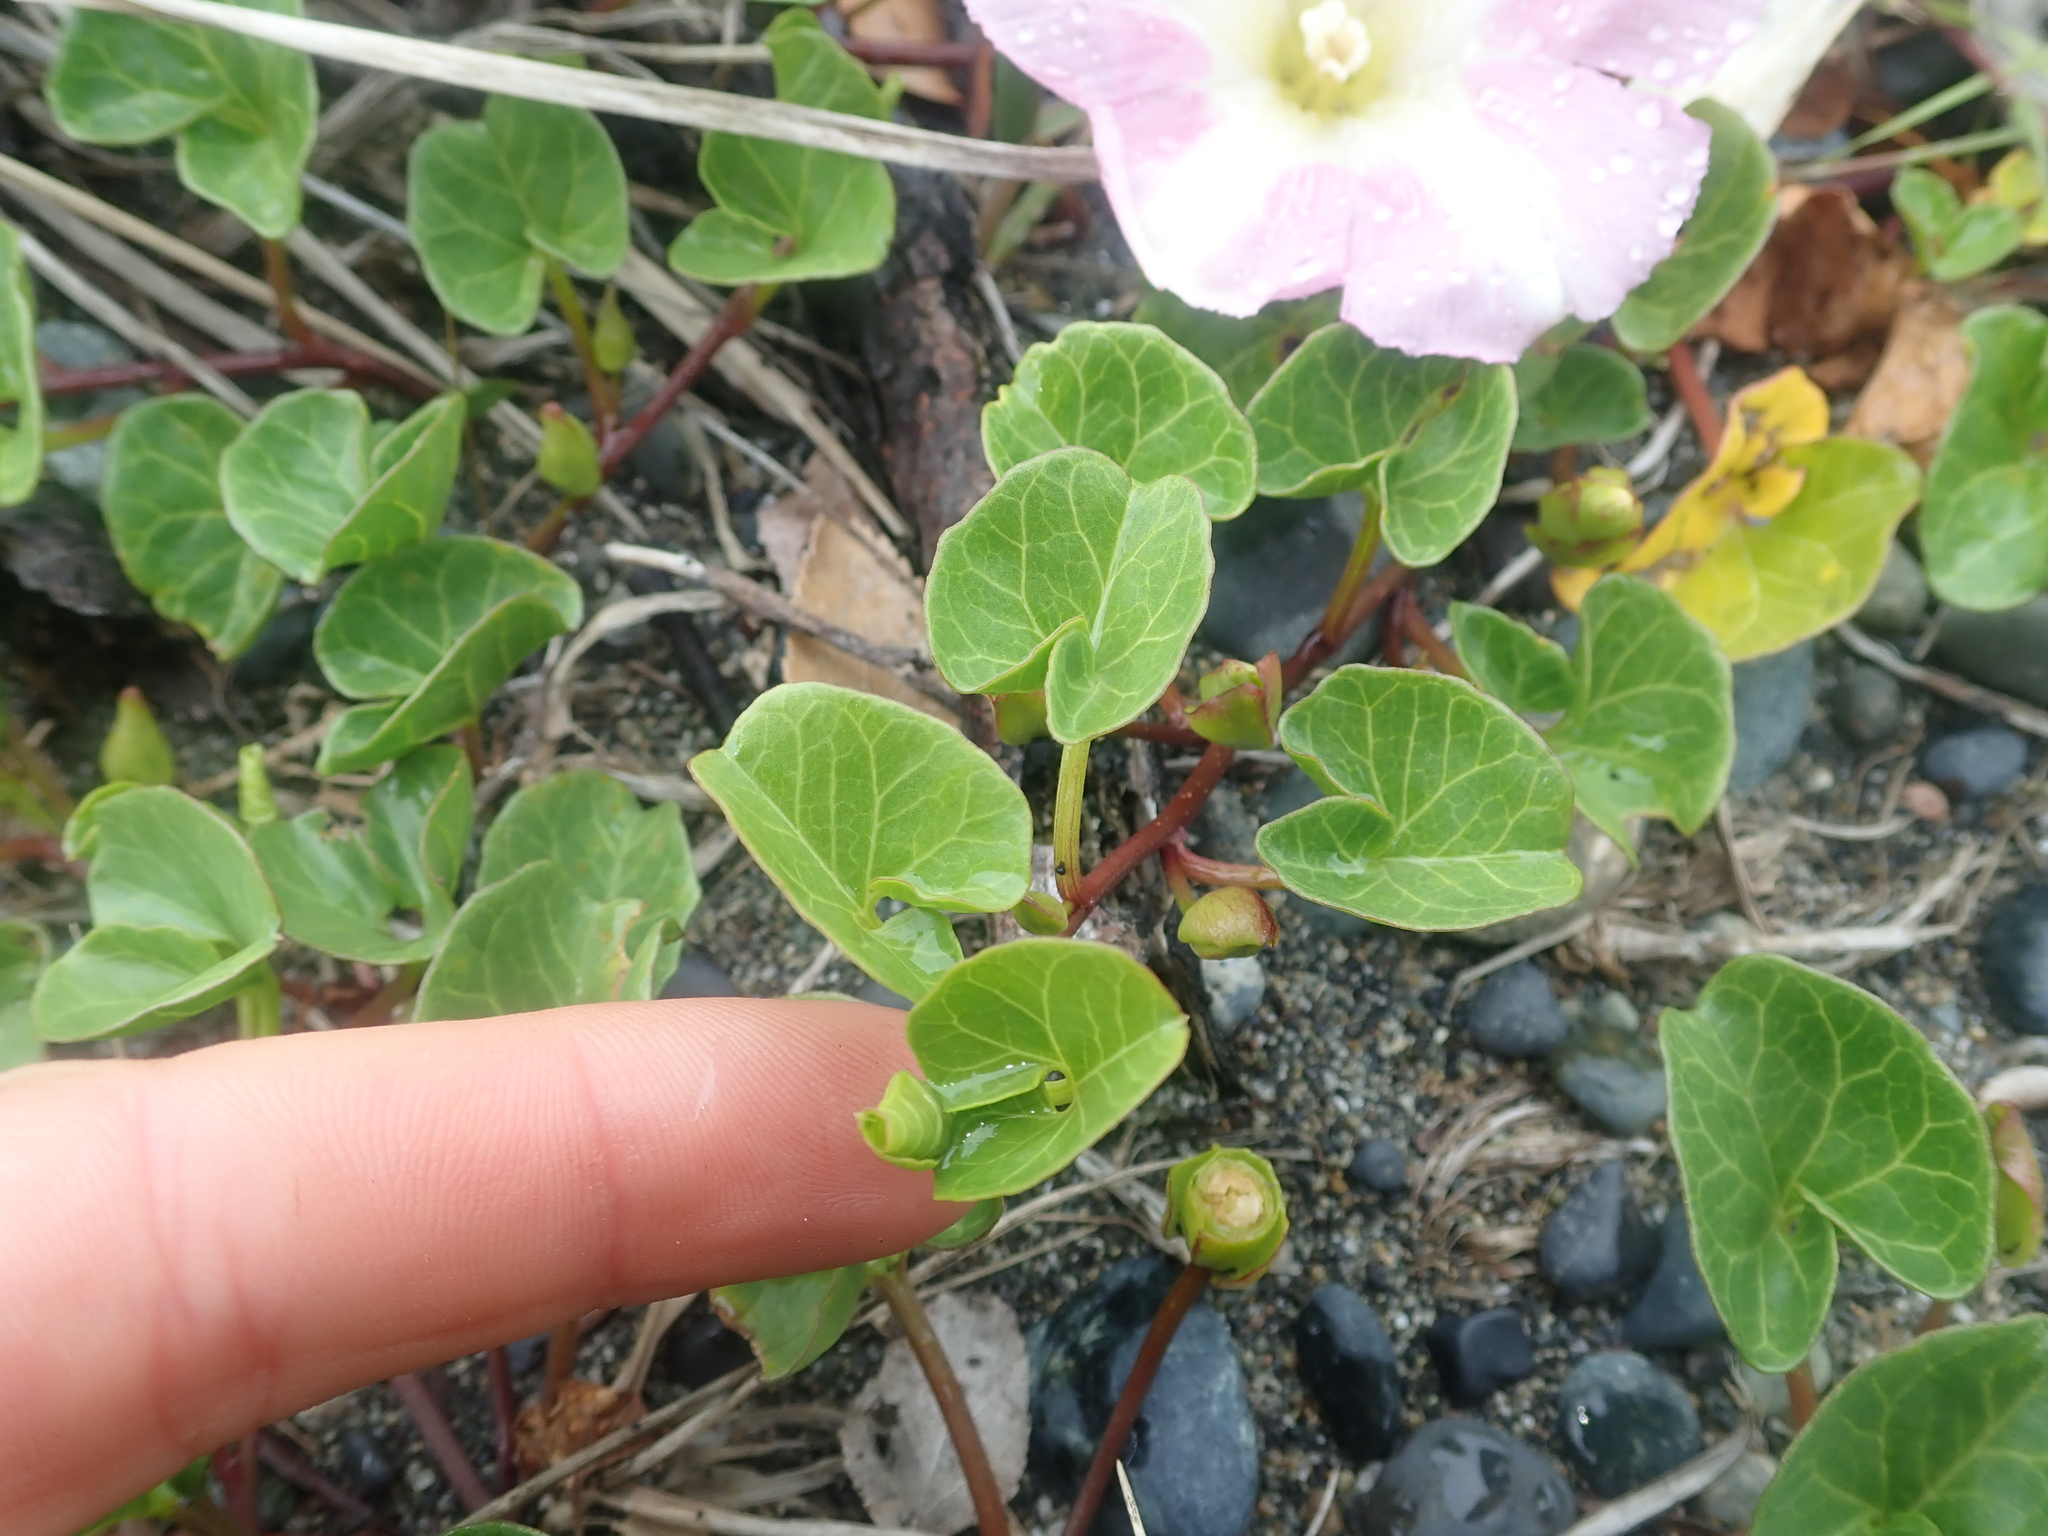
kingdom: Plantae
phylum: Tracheophyta
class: Magnoliopsida
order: Solanales
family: Convolvulaceae
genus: Calystegia
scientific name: Calystegia soldanella
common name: Sea bindweed
